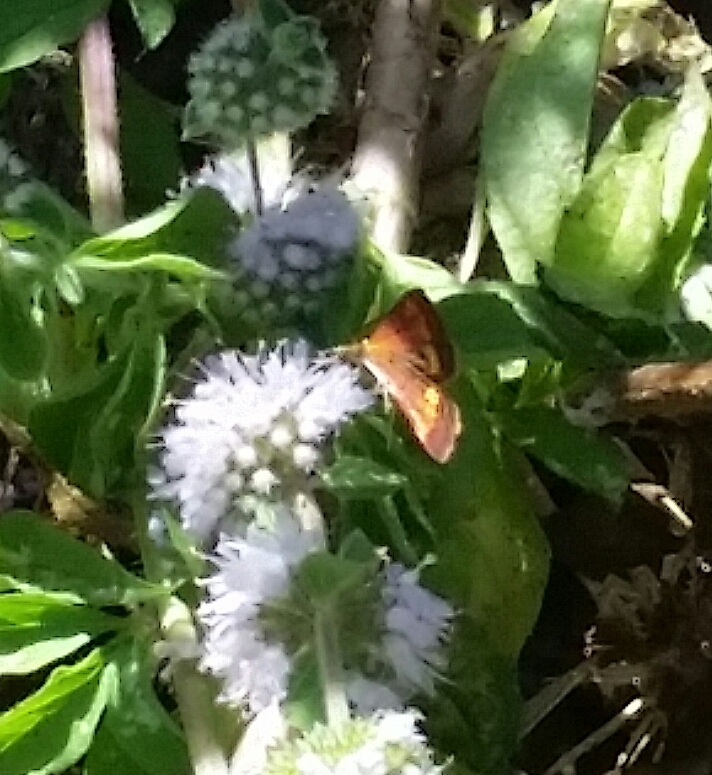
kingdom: Animalia
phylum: Arthropoda
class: Insecta
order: Lepidoptera
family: Crambidae
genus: Pyrausta
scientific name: Pyrausta californicalis
